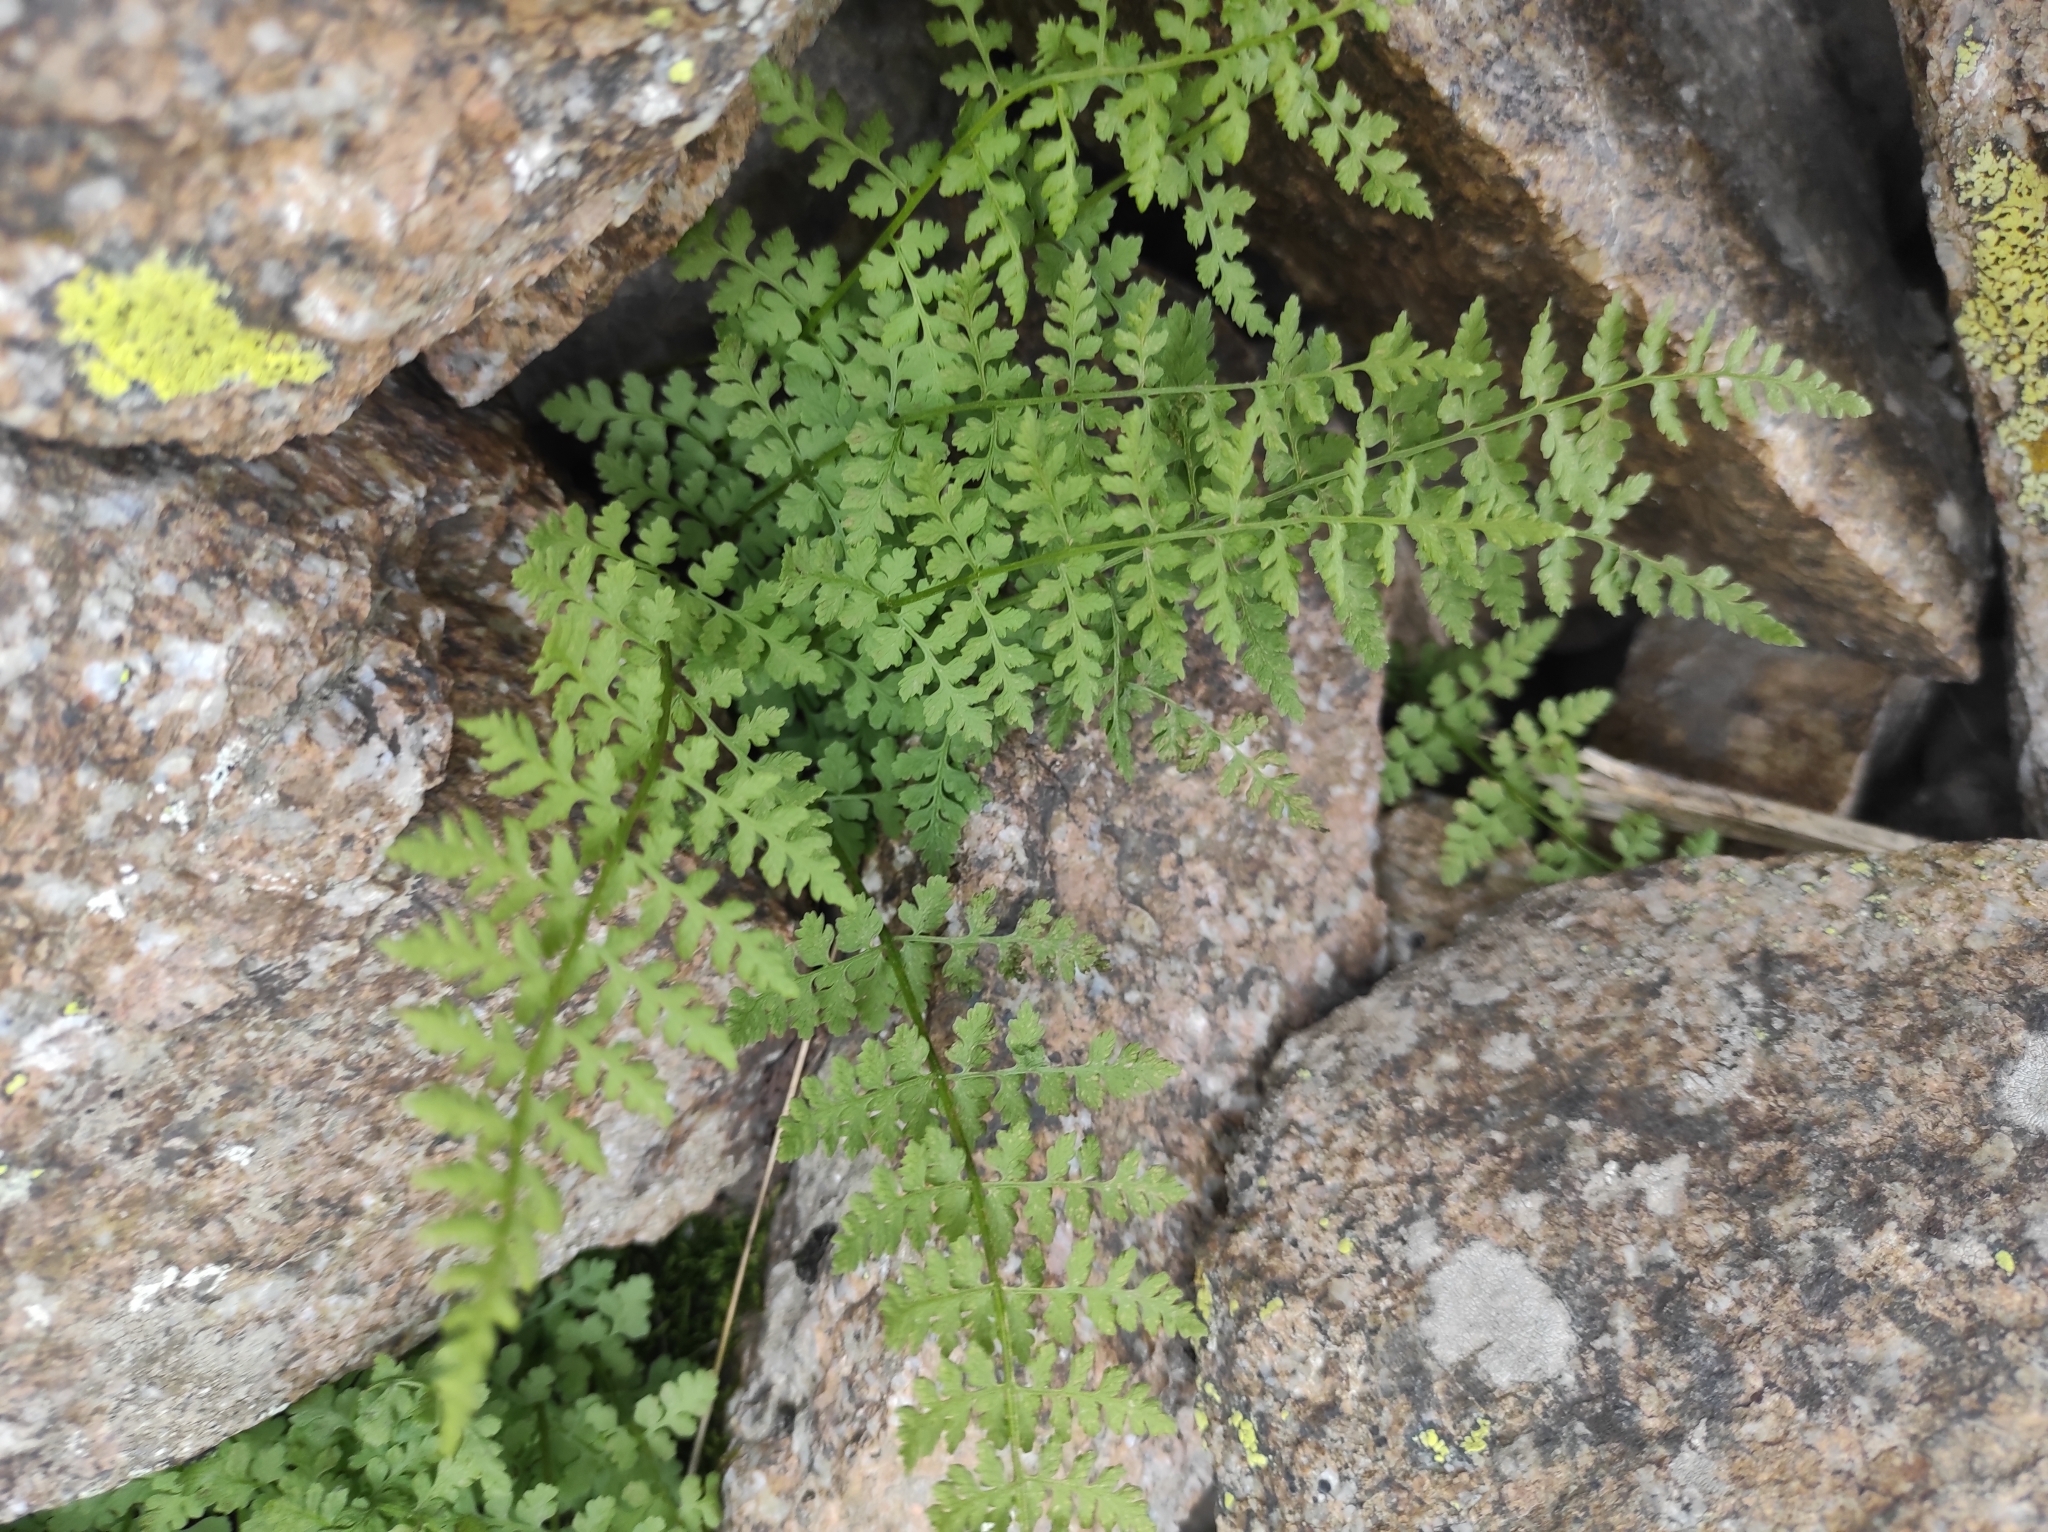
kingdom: Plantae
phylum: Tracheophyta
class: Polypodiopsida
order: Polypodiales
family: Cystopteridaceae
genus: Cystopteris
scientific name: Cystopteris fragilis
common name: Brittle bladder fern
